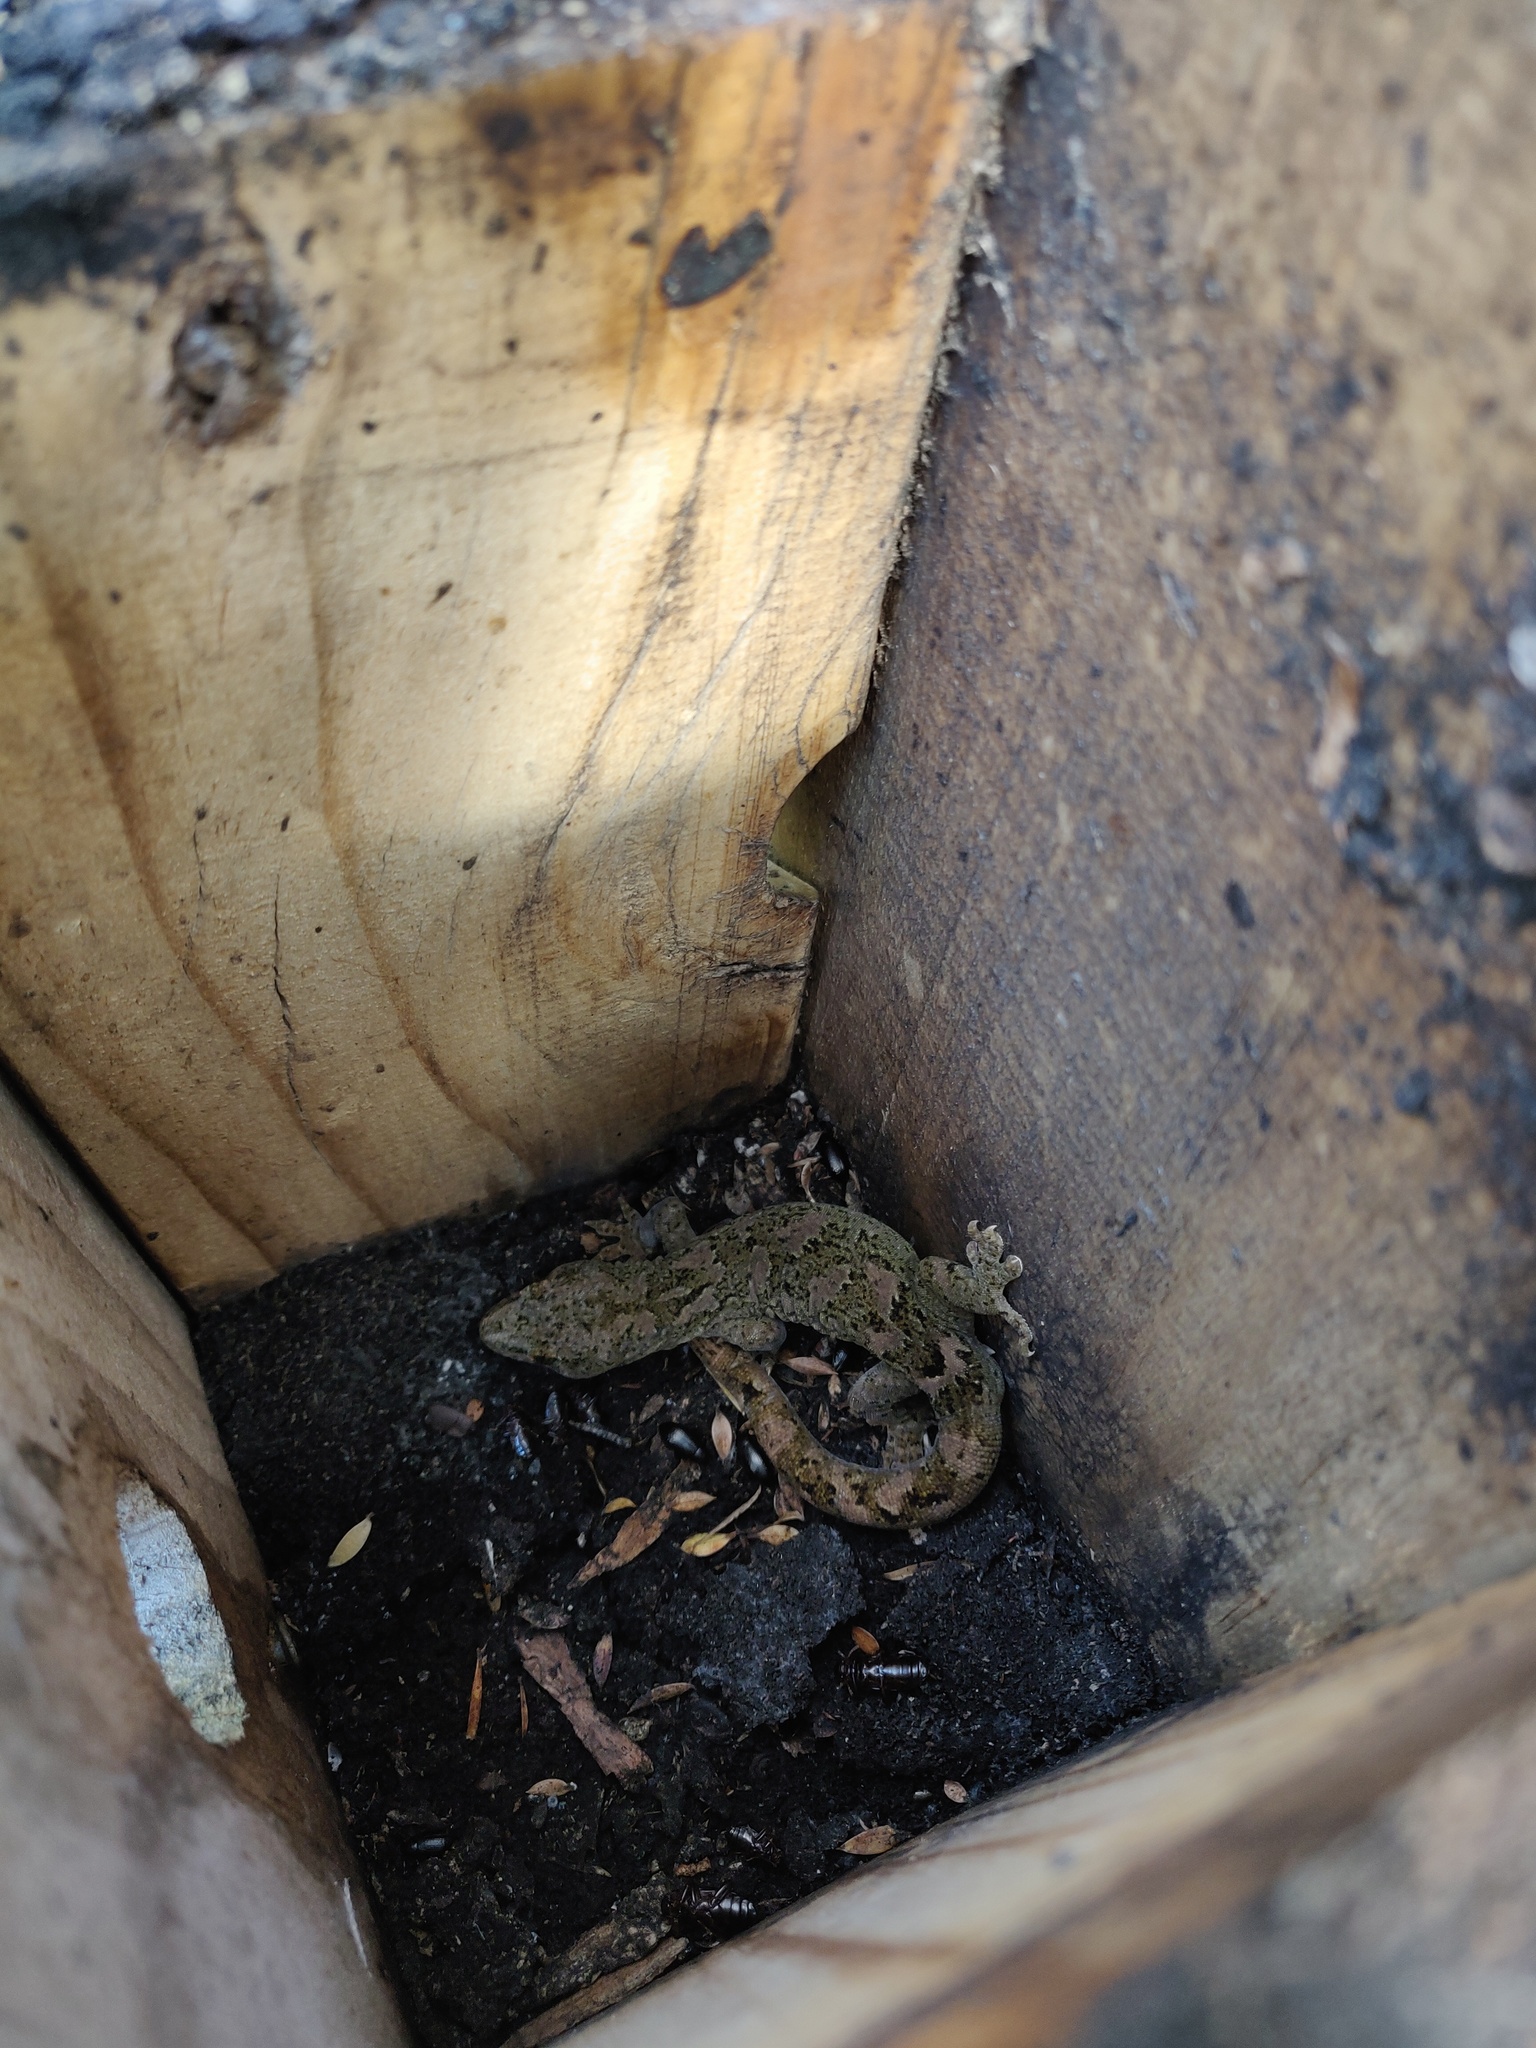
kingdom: Animalia
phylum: Chordata
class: Squamata
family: Diplodactylidae
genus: Woodworthia
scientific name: Woodworthia maculata
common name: Raukawa gecko
